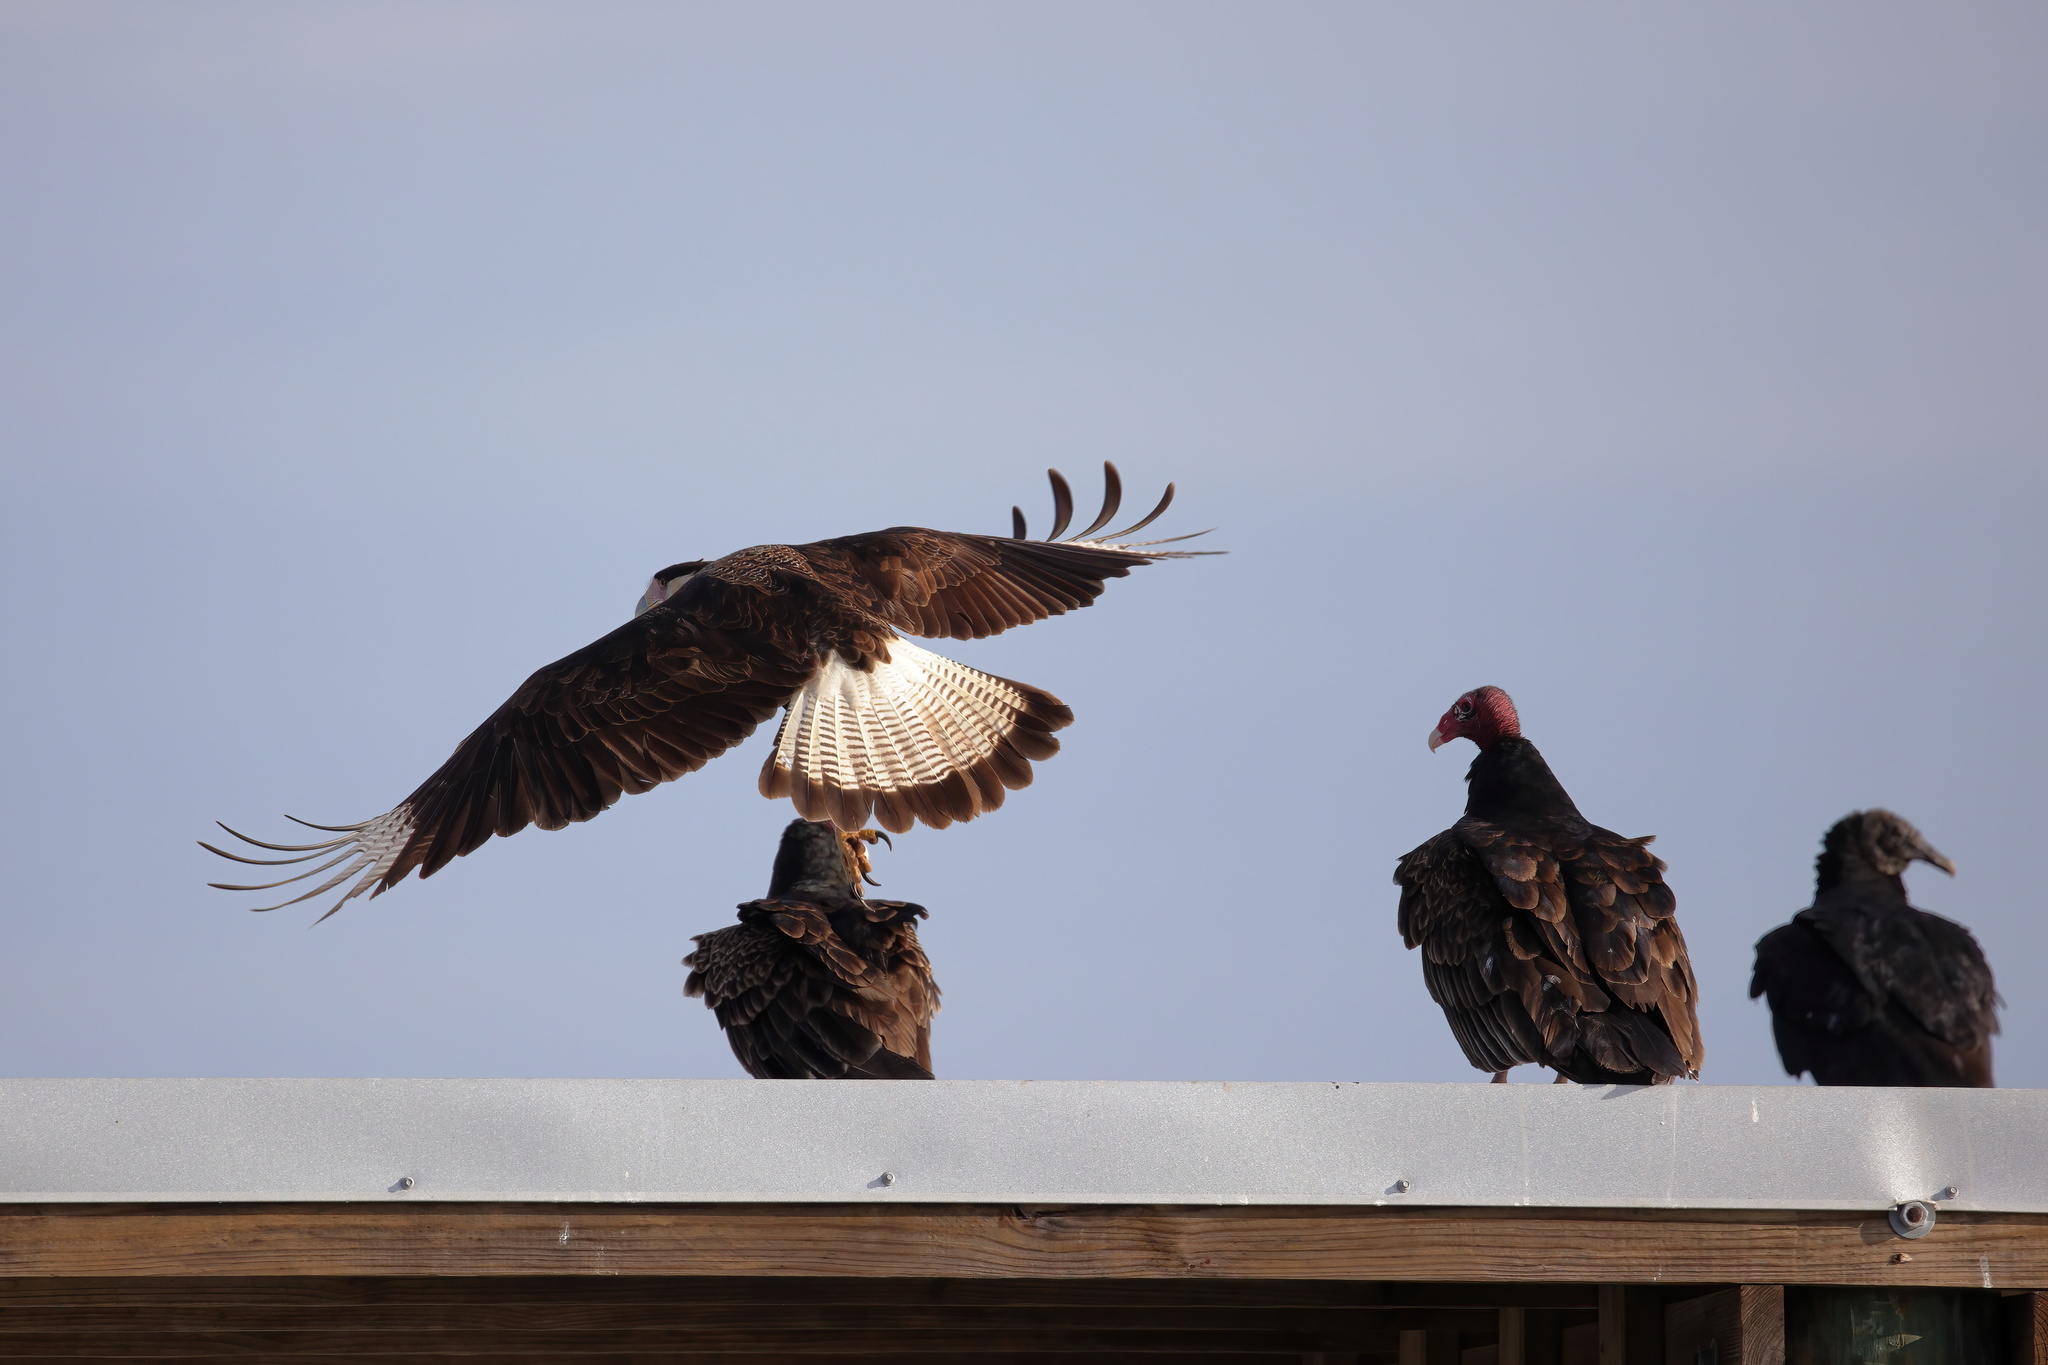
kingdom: Animalia
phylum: Chordata
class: Aves
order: Falconiformes
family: Falconidae
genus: Caracara
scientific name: Caracara plancus
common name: Southern caracara
